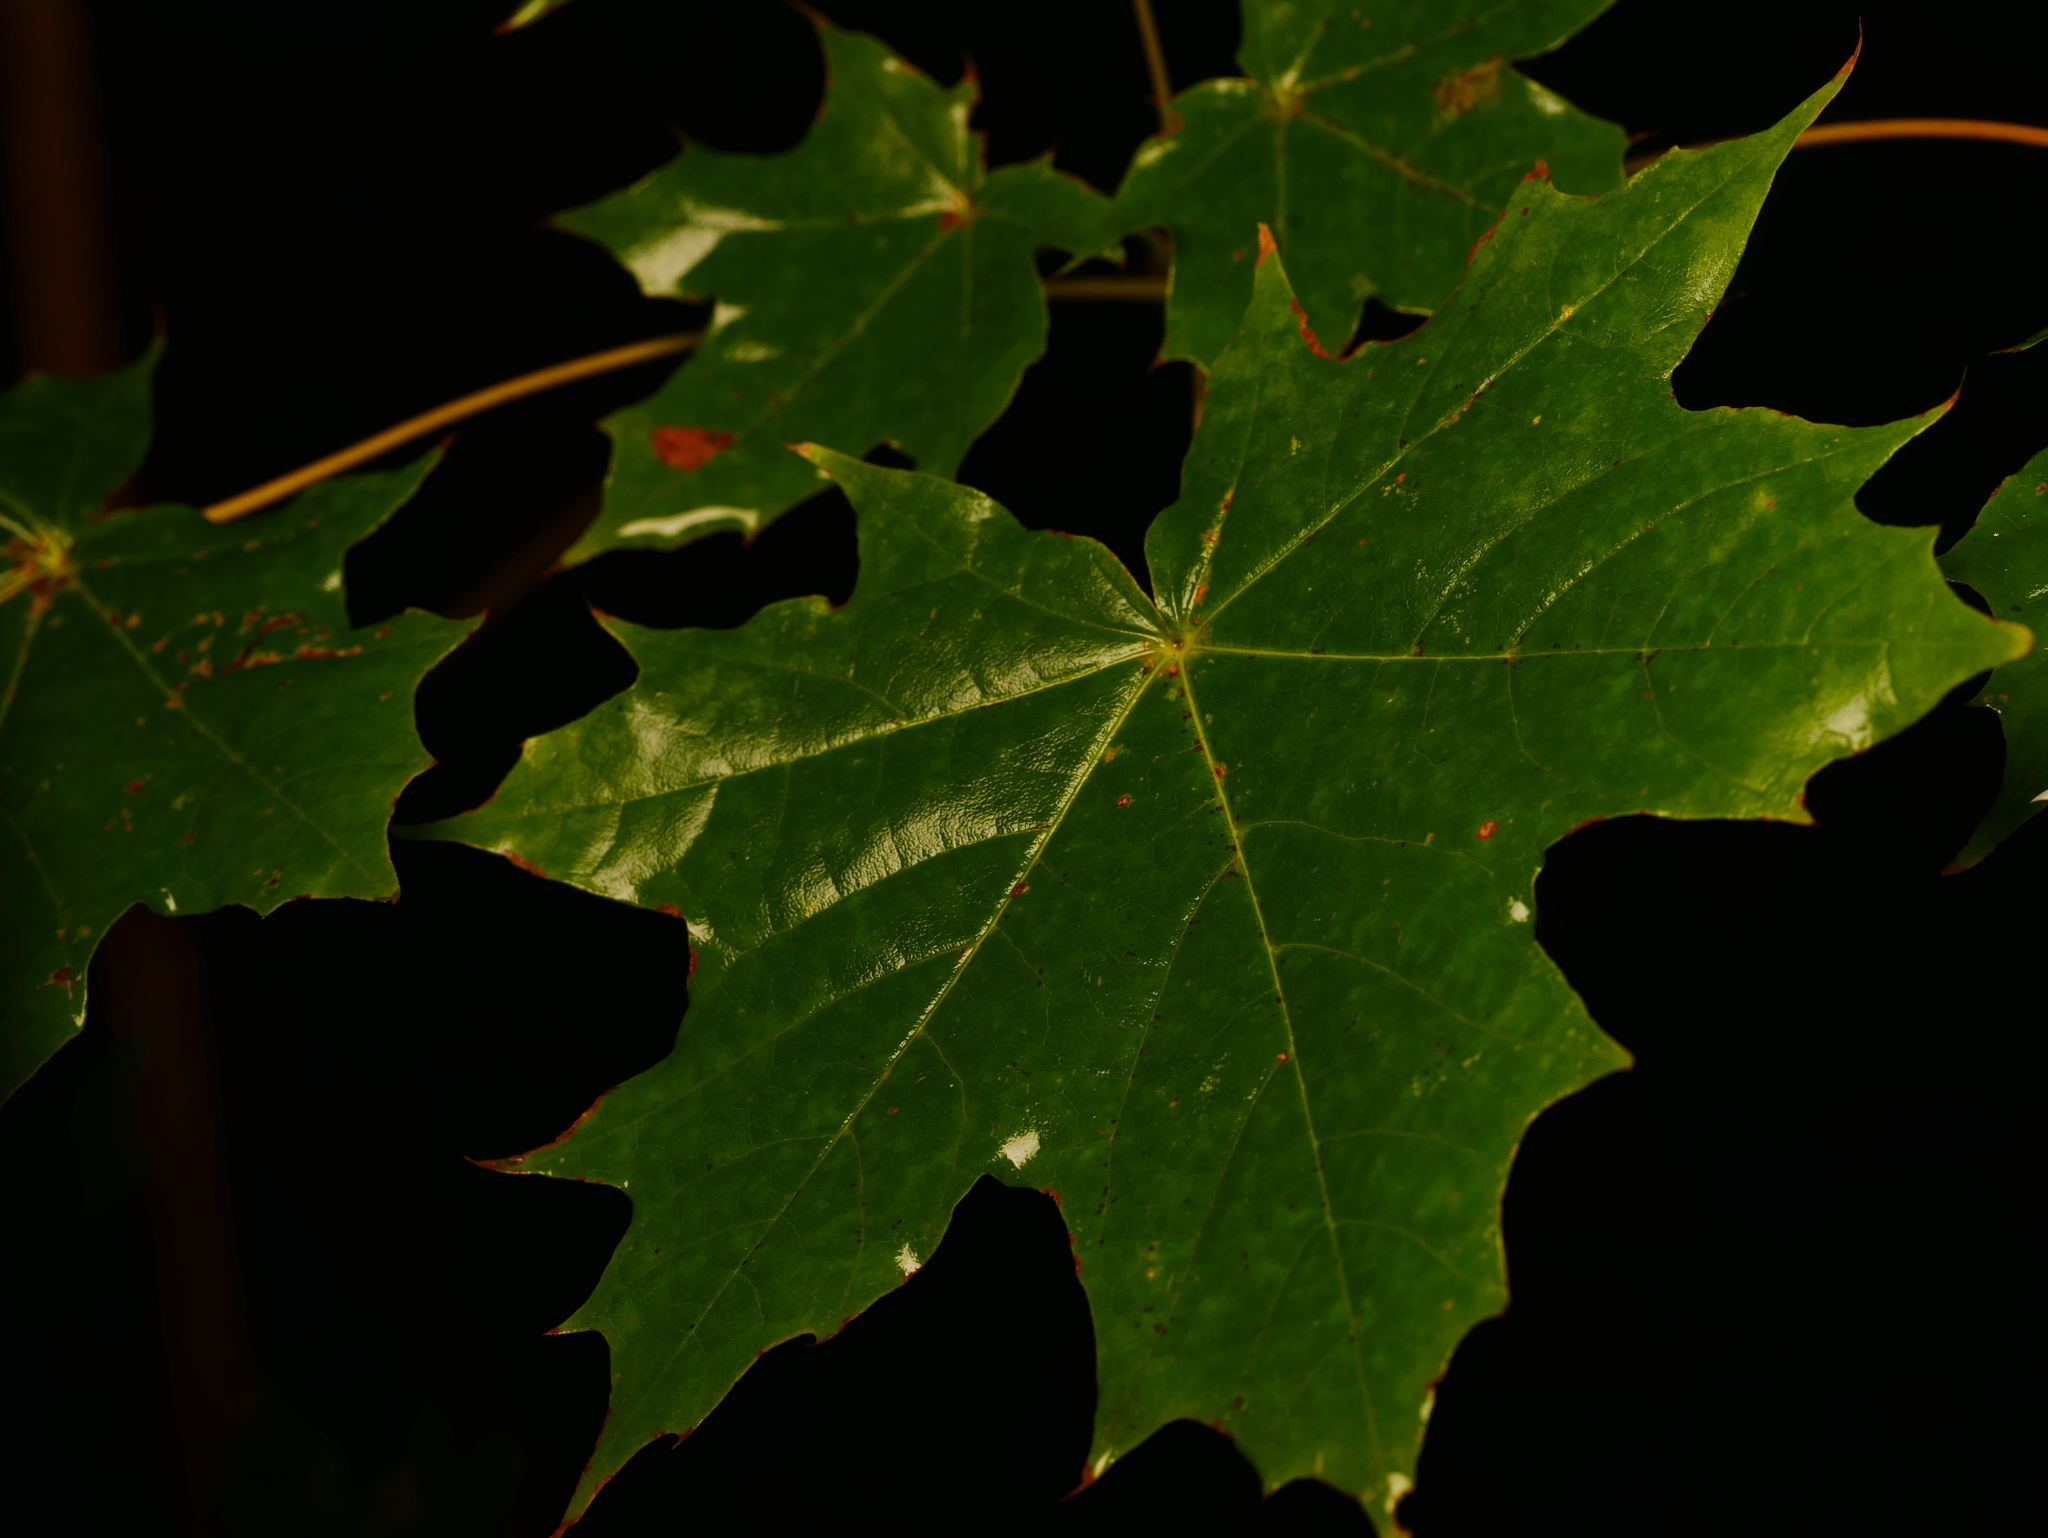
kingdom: Plantae
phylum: Tracheophyta
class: Magnoliopsida
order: Sapindales
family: Sapindaceae
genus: Acer
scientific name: Acer platanoides
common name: Norway maple
